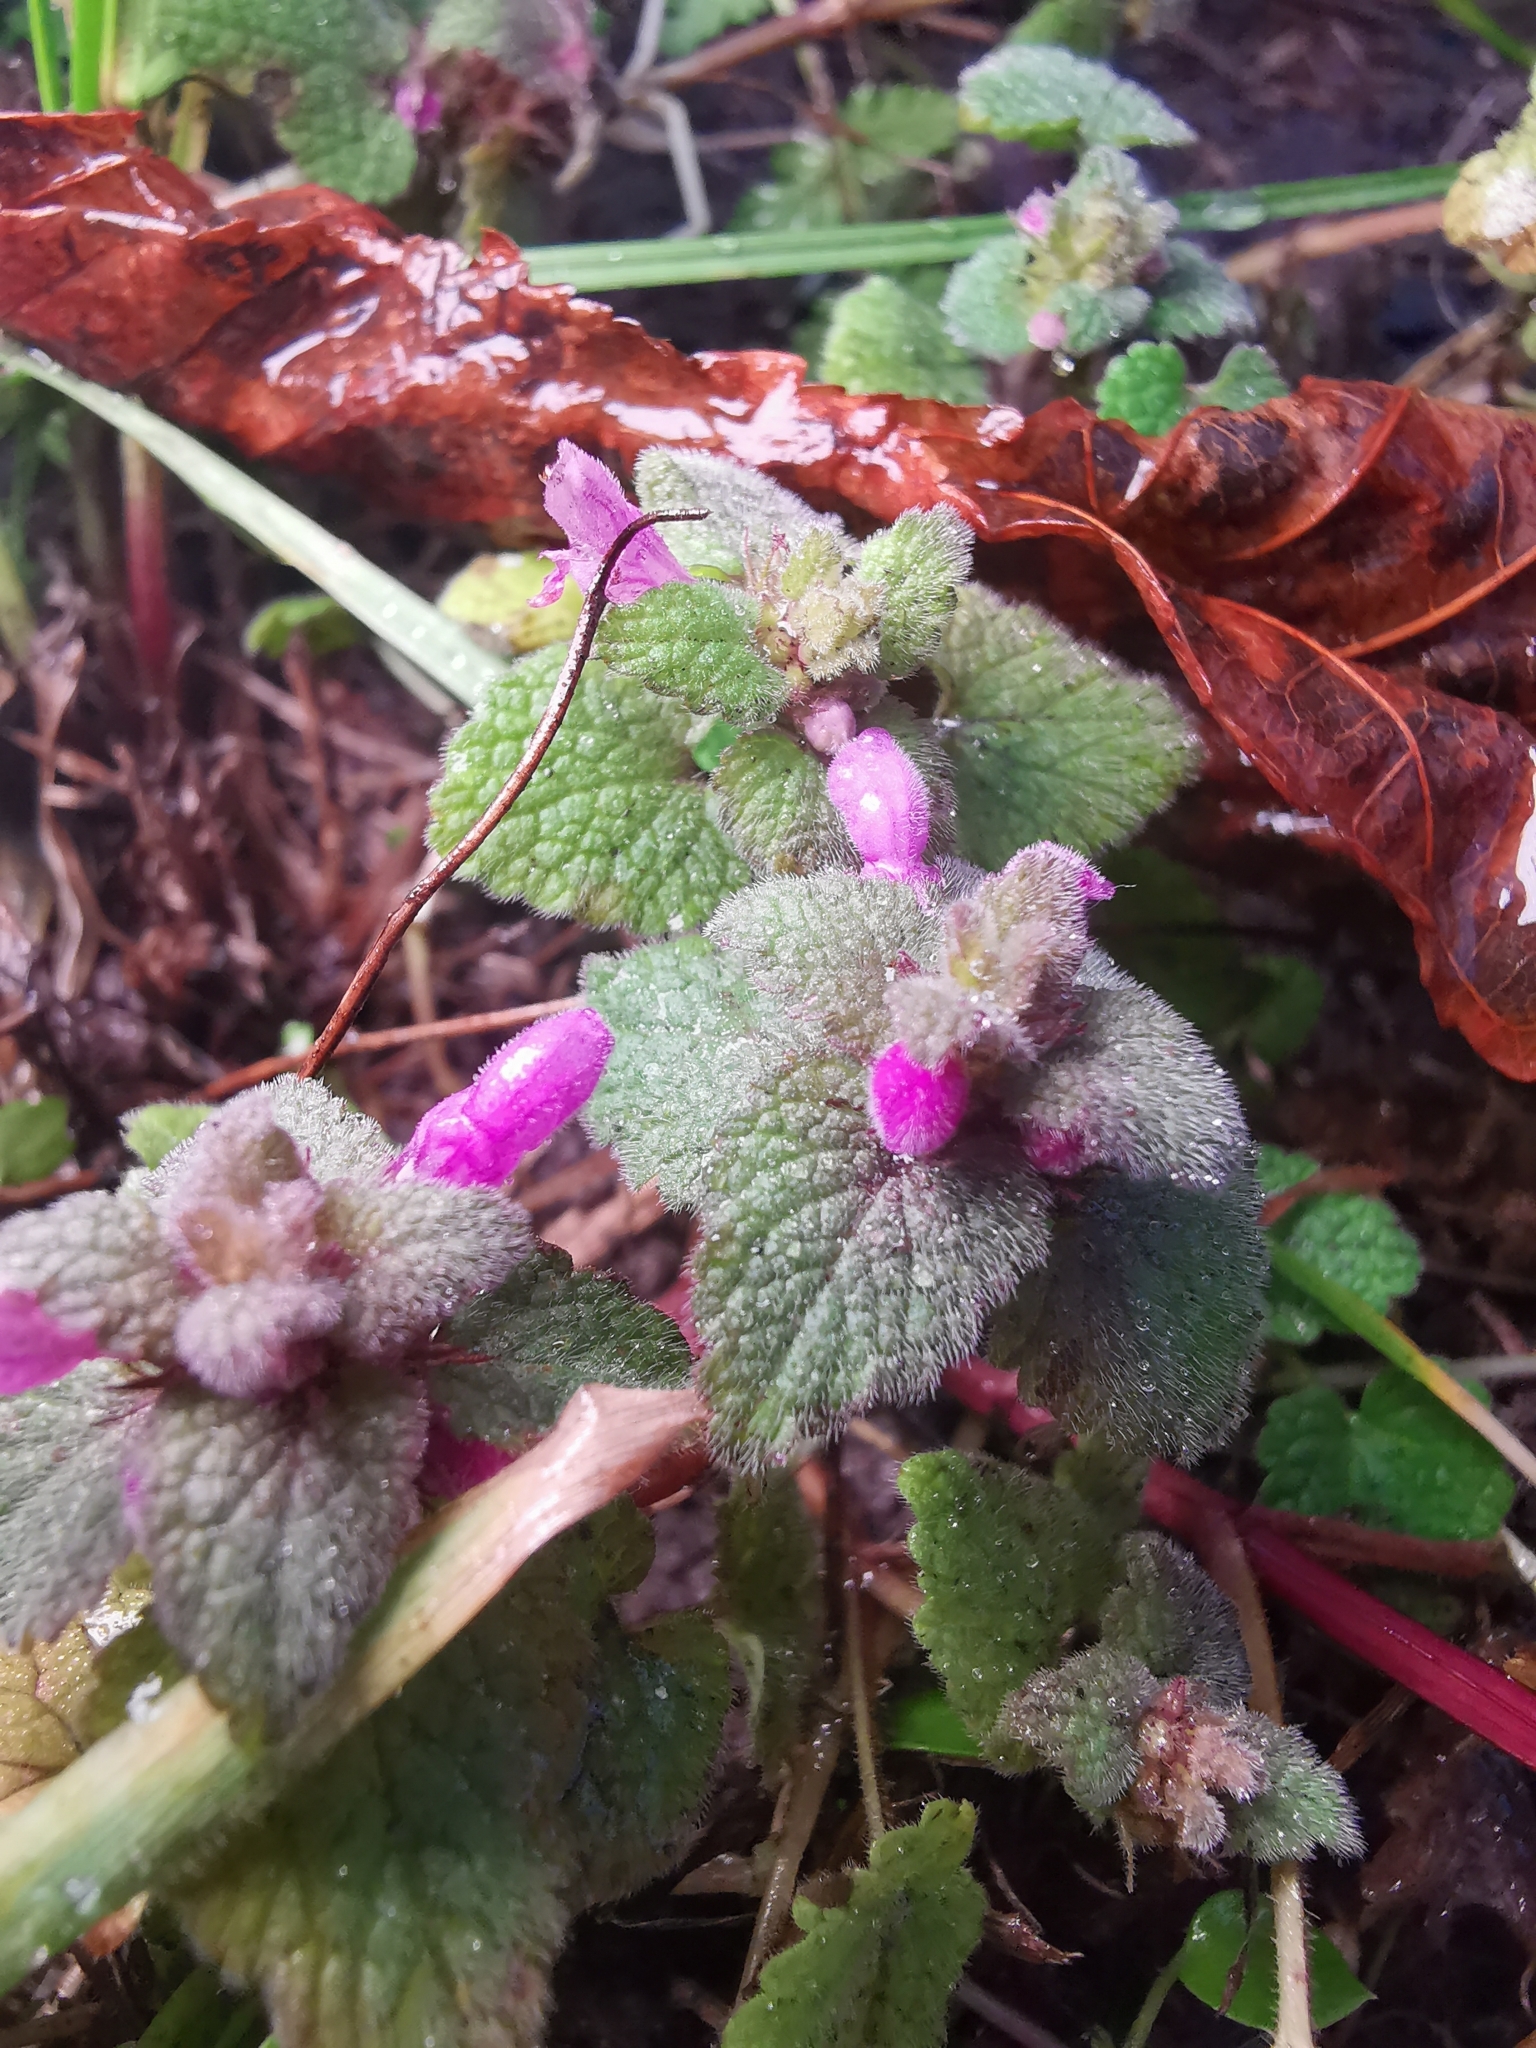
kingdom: Plantae
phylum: Tracheophyta
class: Magnoliopsida
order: Lamiales
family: Lamiaceae
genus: Lamium
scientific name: Lamium purpureum
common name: Red dead-nettle
